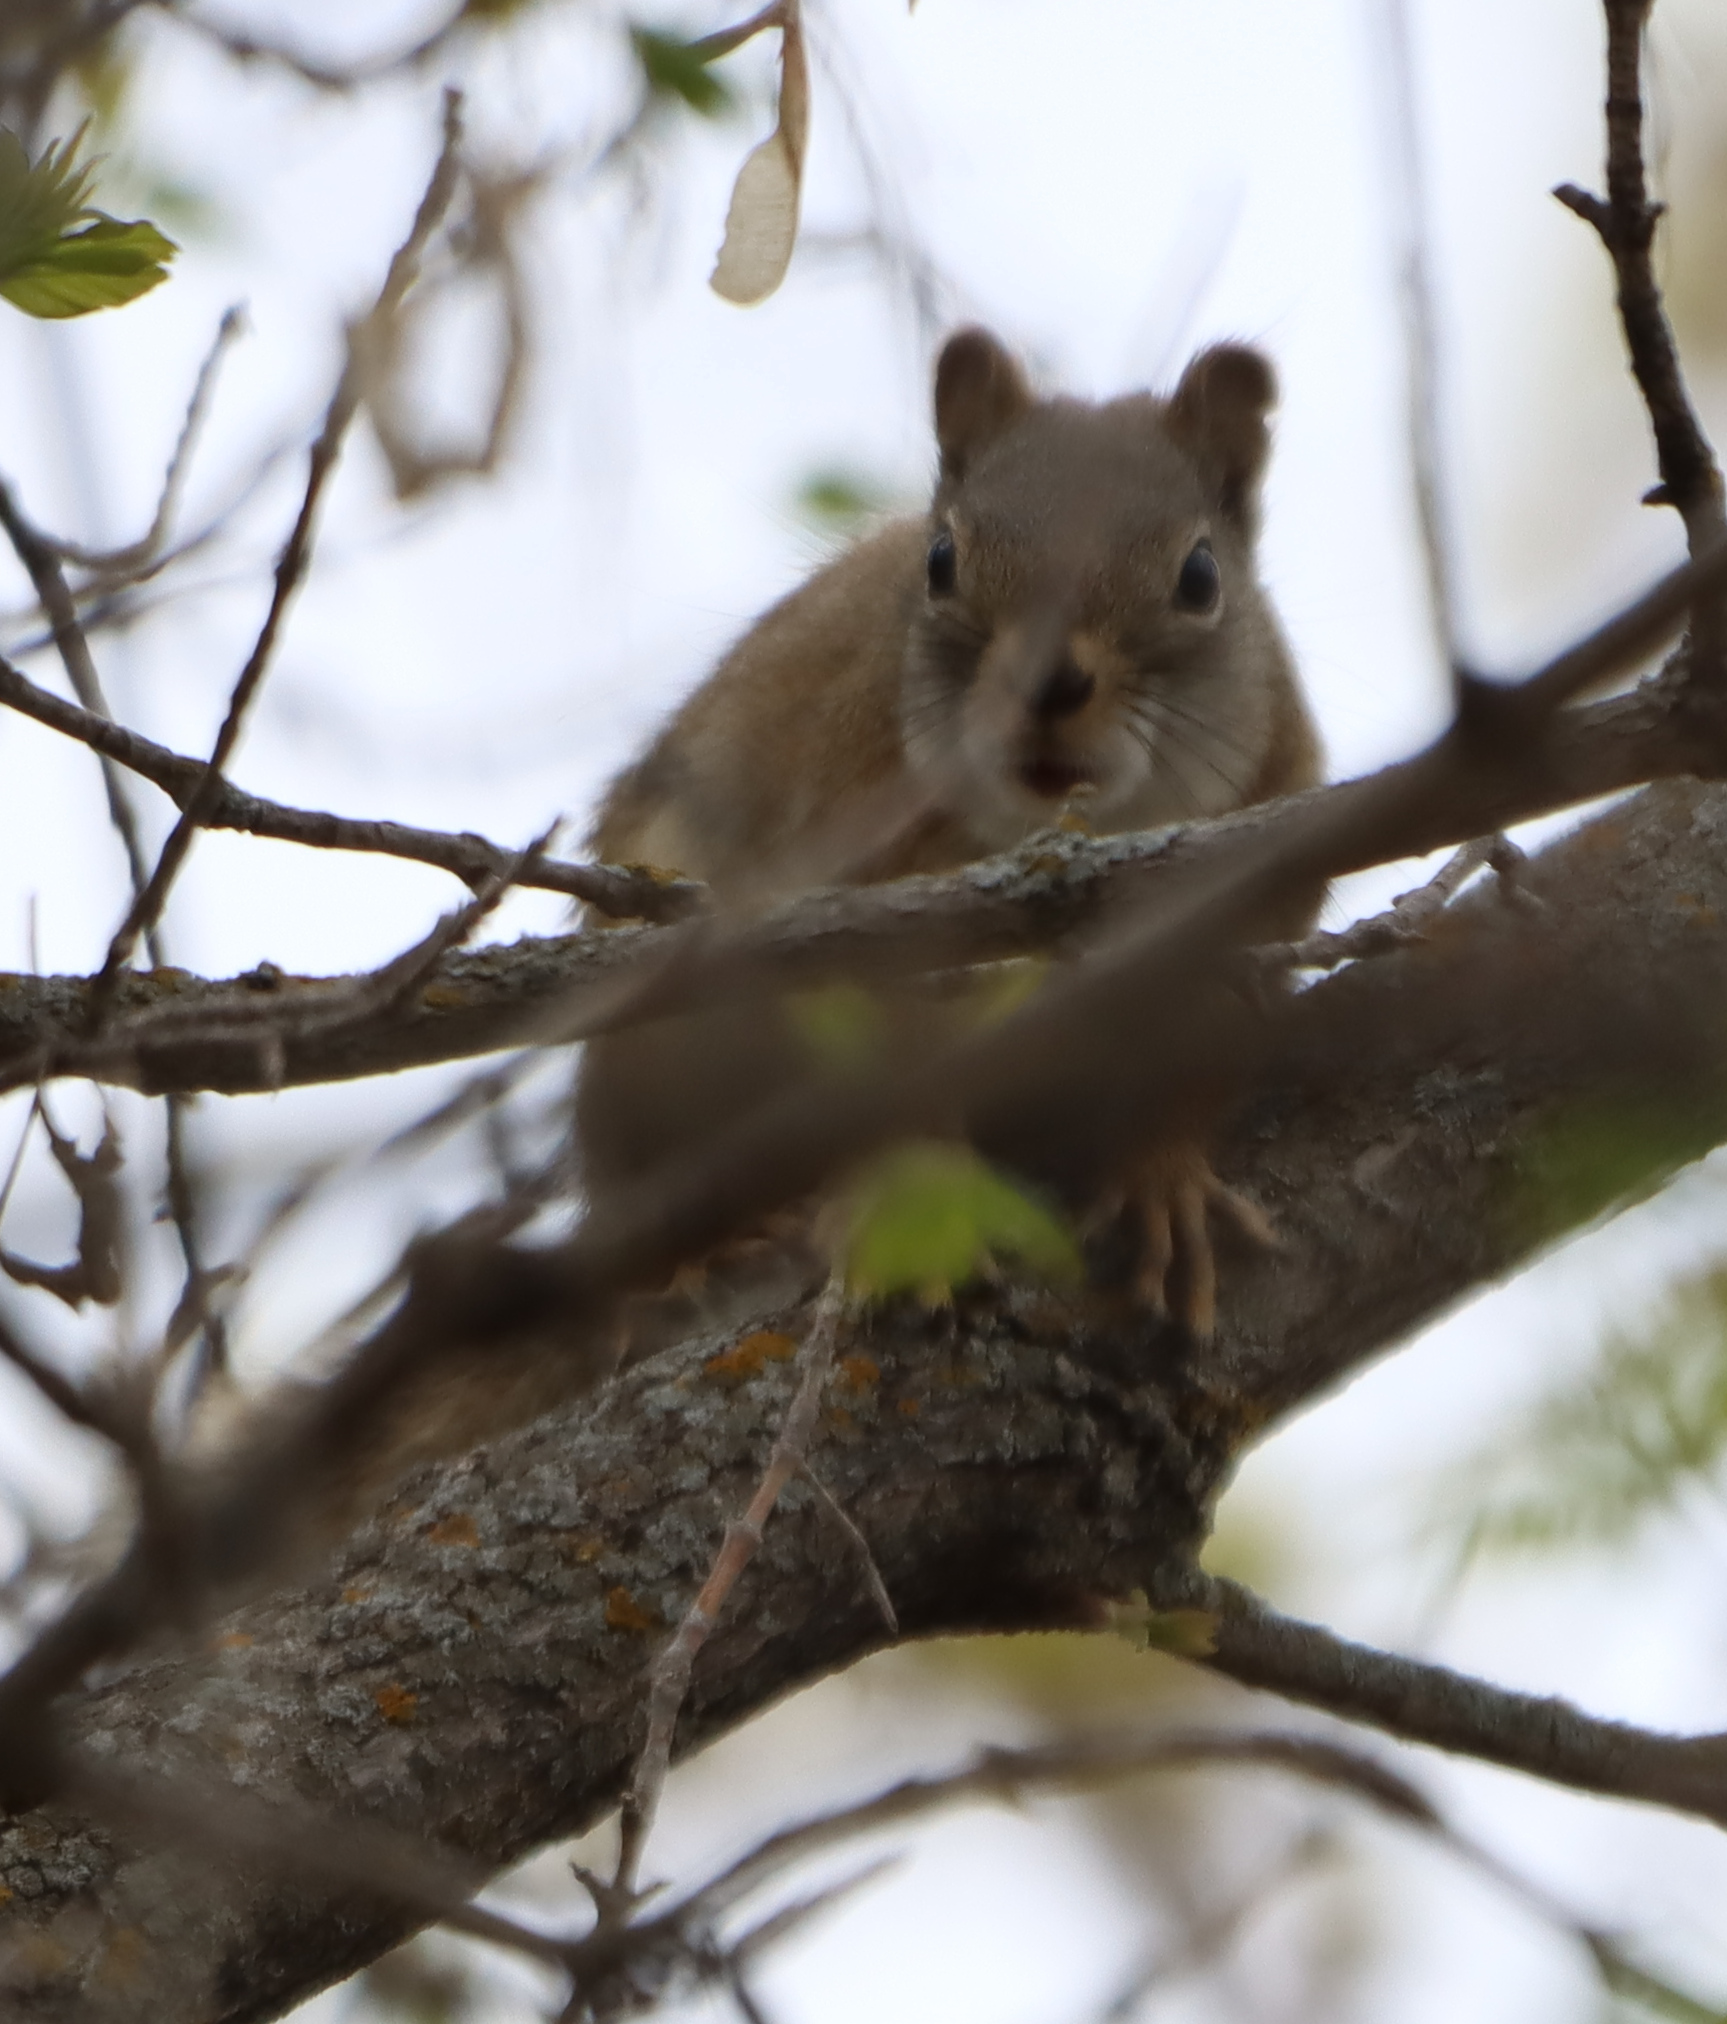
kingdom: Animalia
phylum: Chordata
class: Mammalia
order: Rodentia
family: Sciuridae
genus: Tamiasciurus
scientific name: Tamiasciurus hudsonicus
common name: Red squirrel
